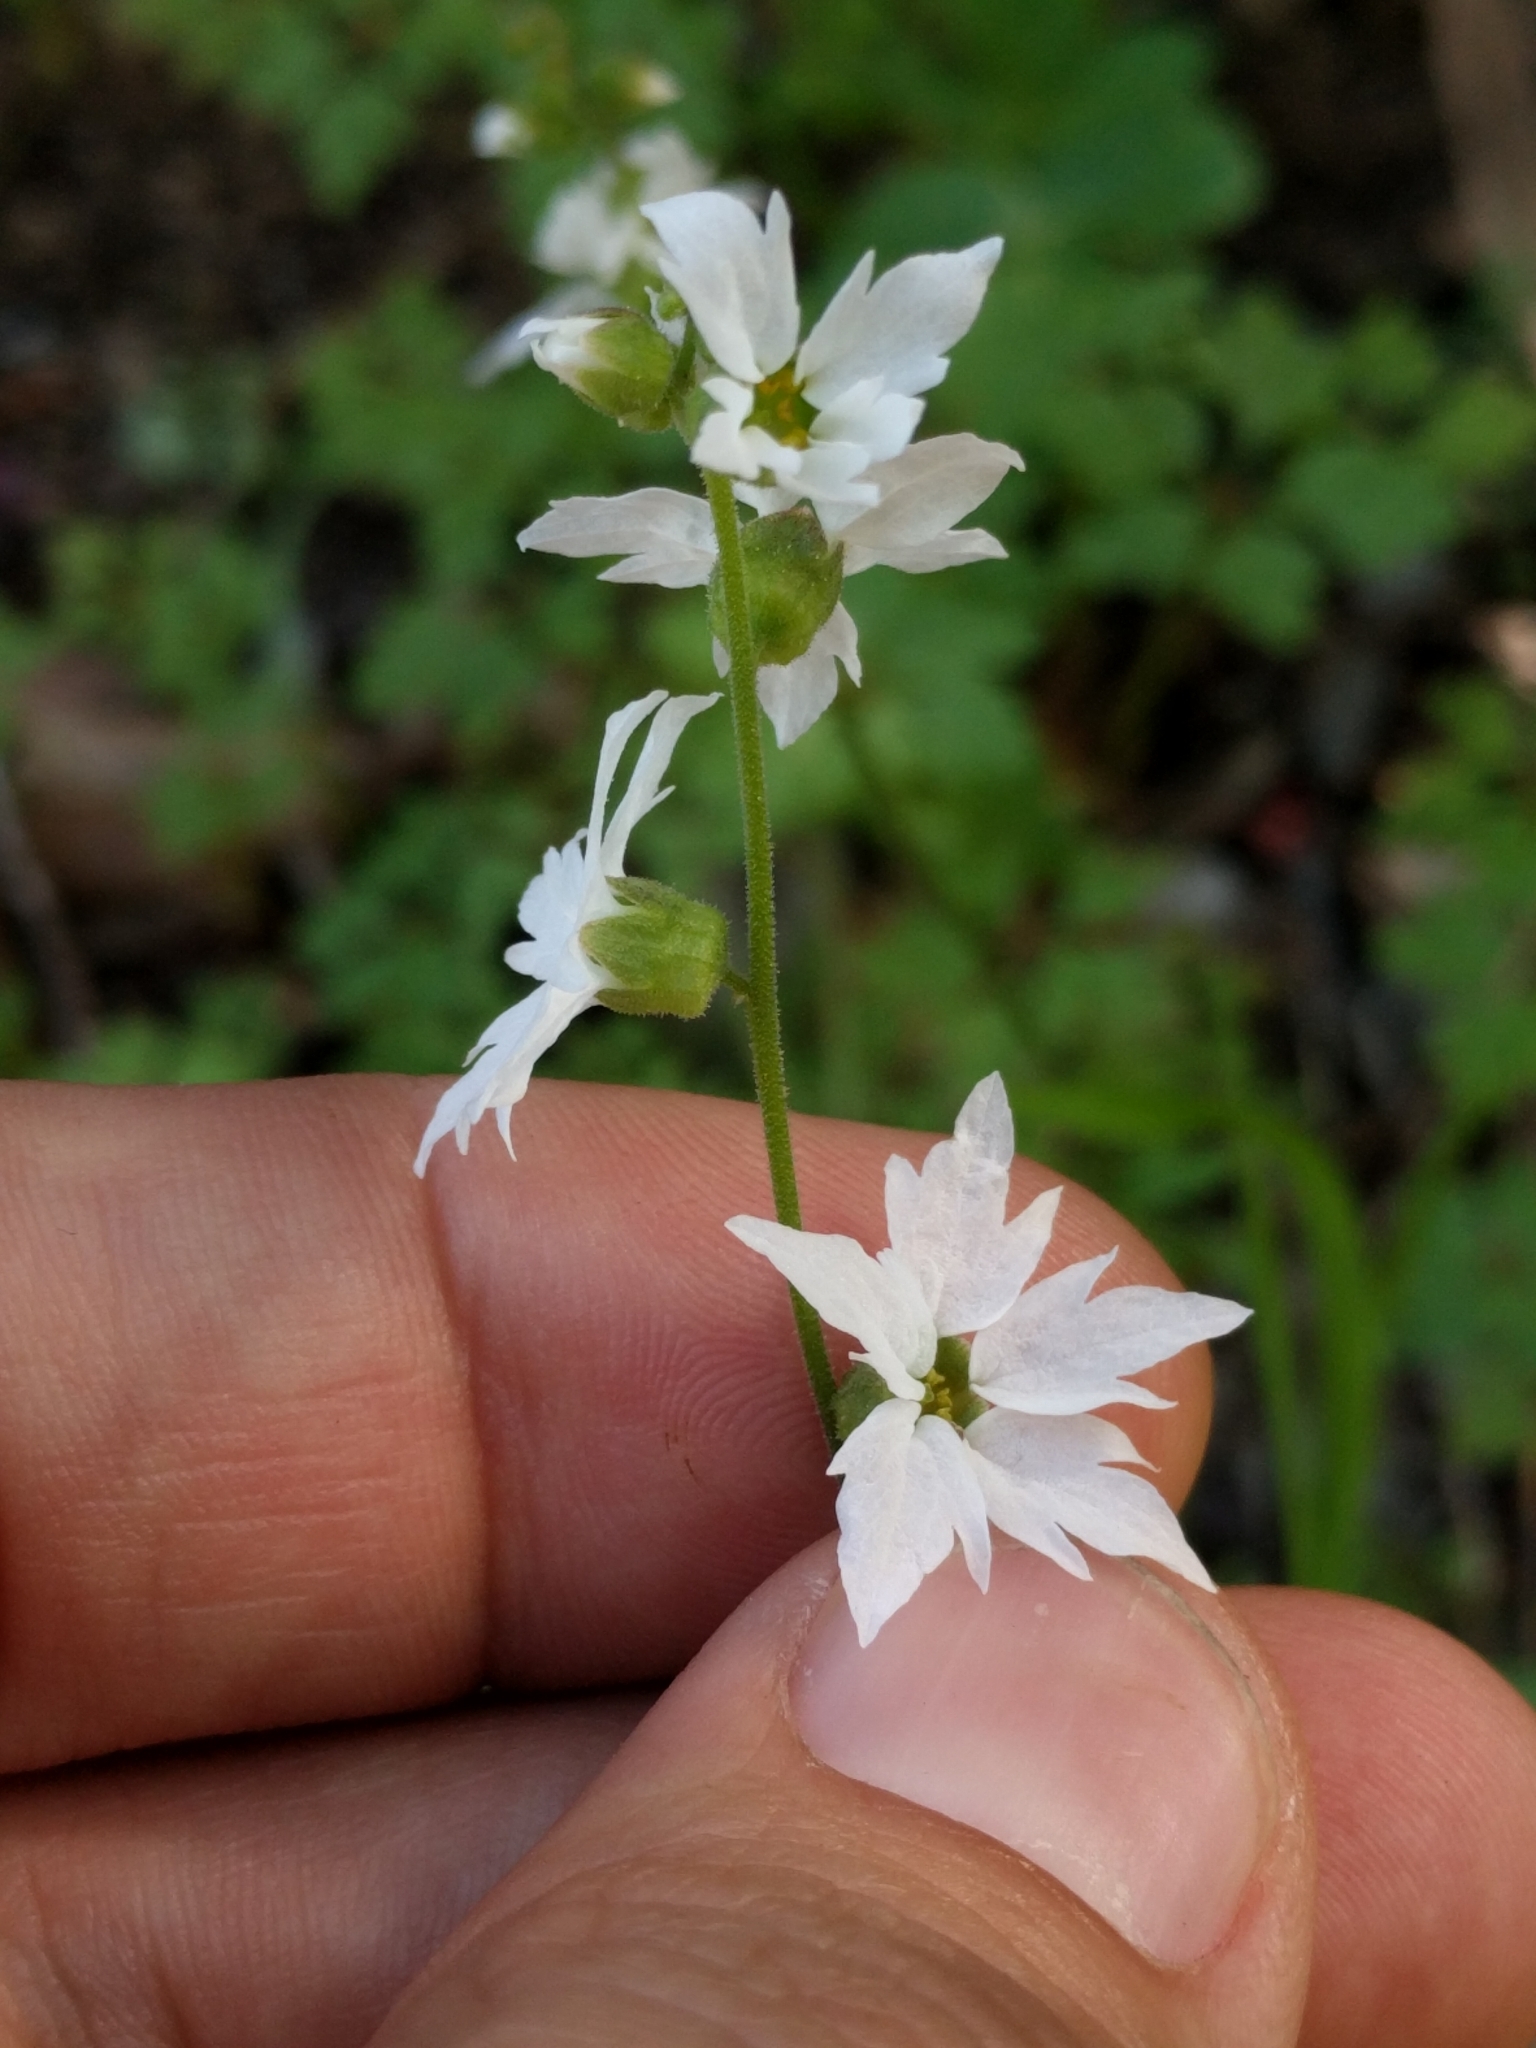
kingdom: Plantae
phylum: Tracheophyta
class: Magnoliopsida
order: Saxifragales
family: Saxifragaceae
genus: Lithophragma
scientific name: Lithophragma heterophyllum
